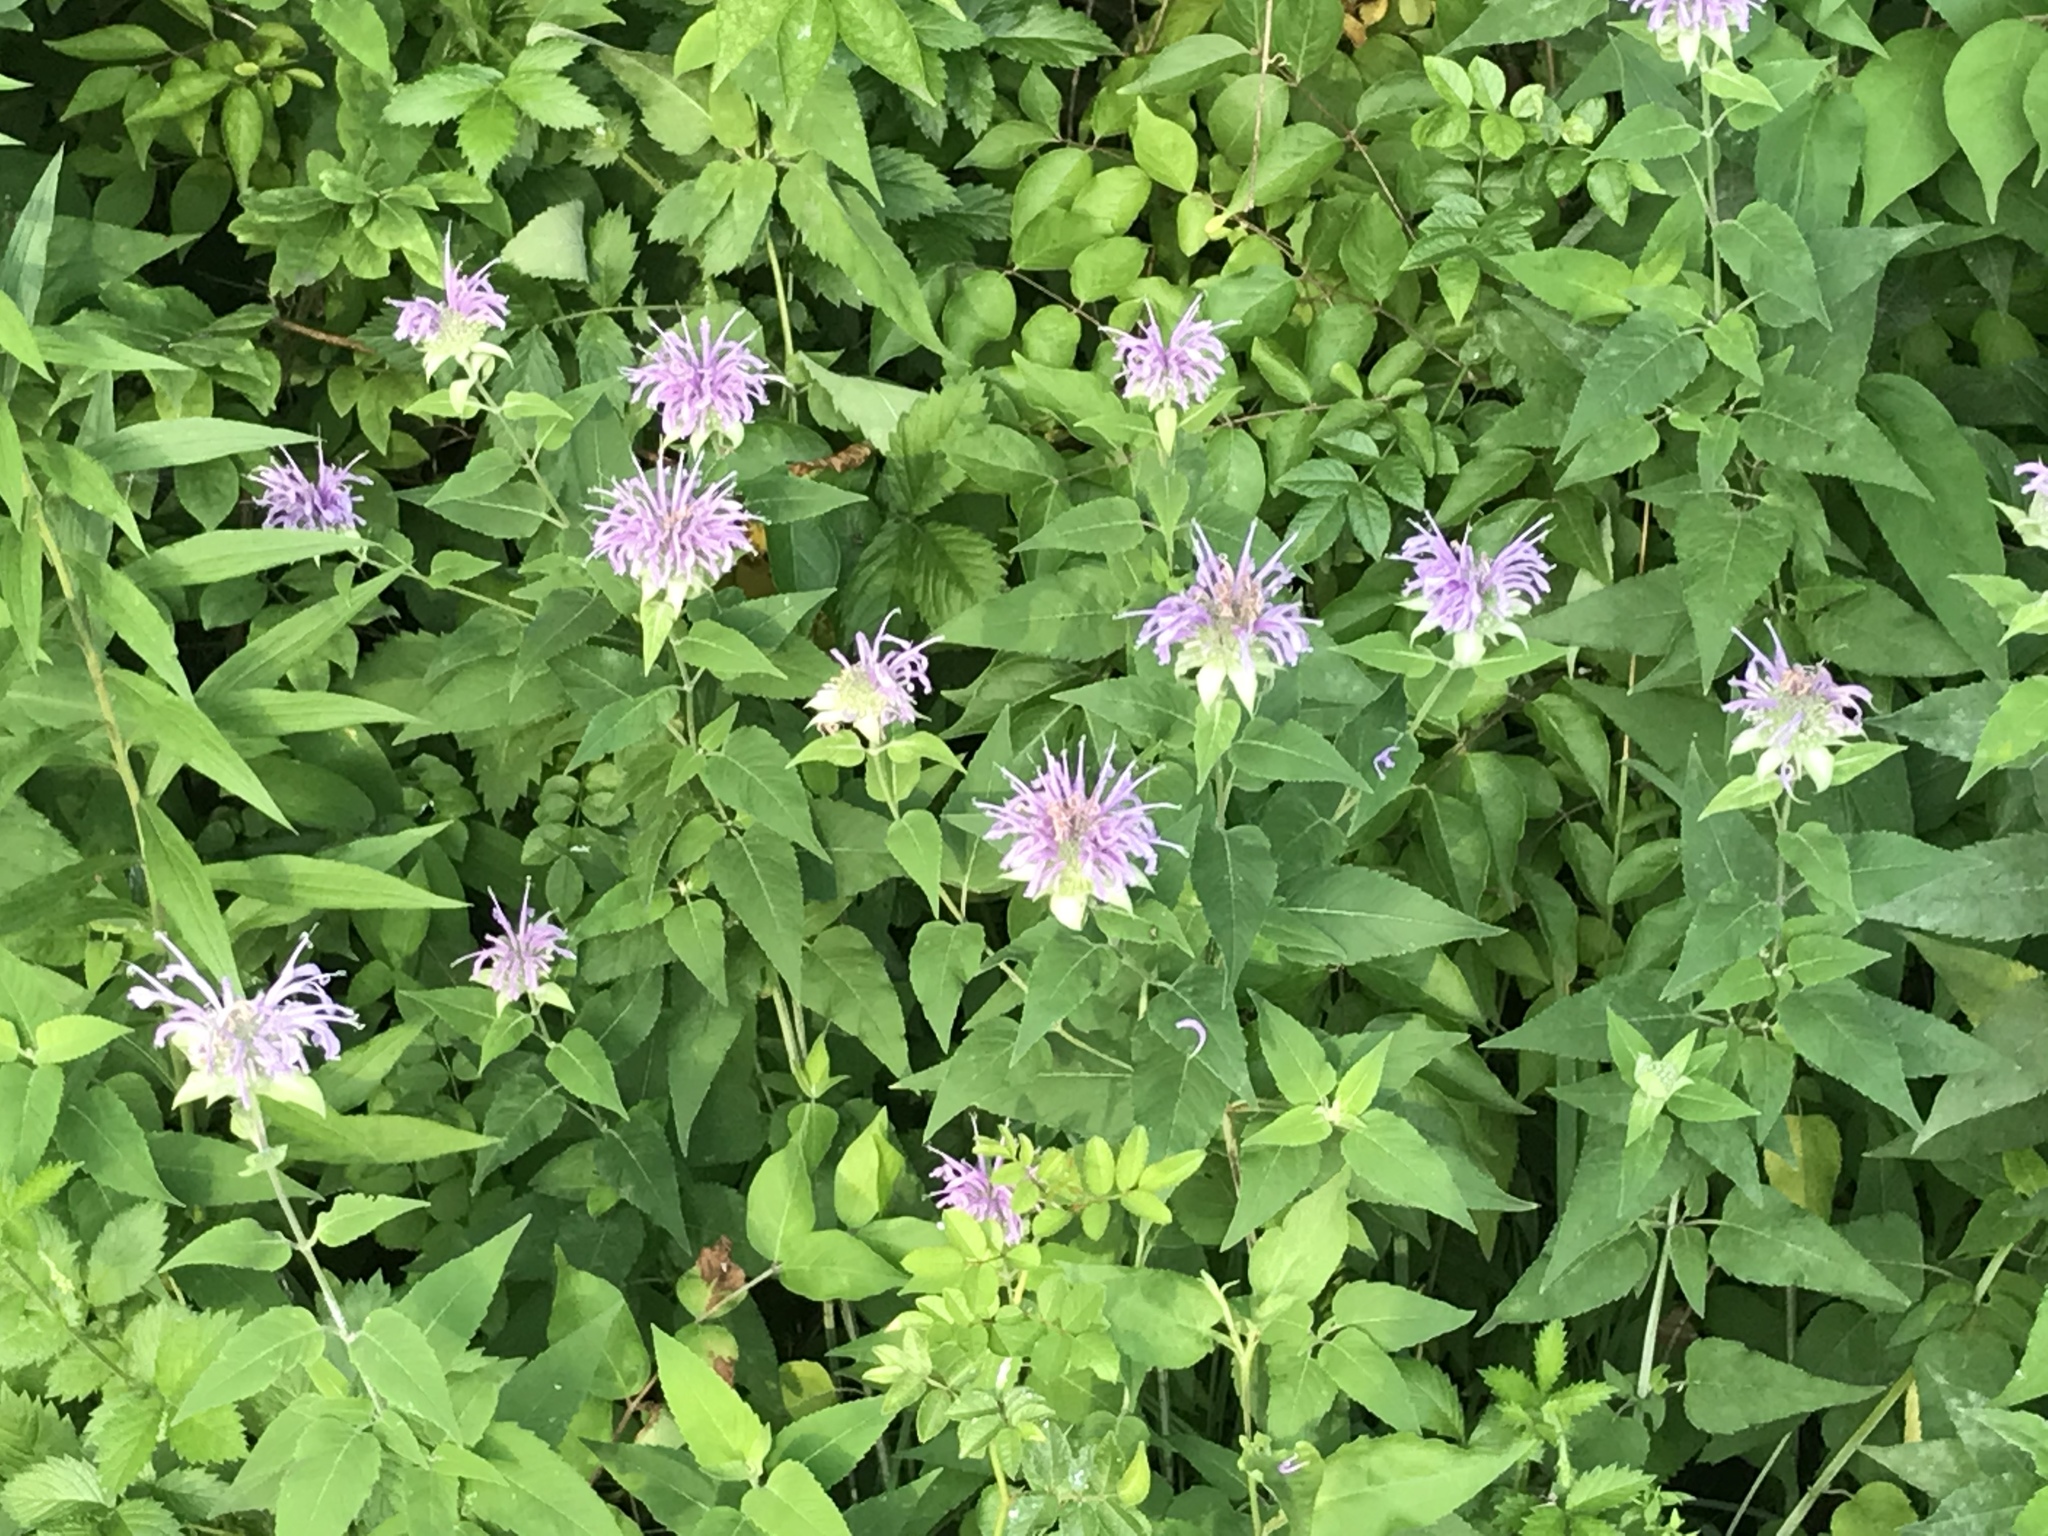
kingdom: Plantae
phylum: Tracheophyta
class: Magnoliopsida
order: Lamiales
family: Lamiaceae
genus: Monarda
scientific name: Monarda fistulosa
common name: Purple beebalm
